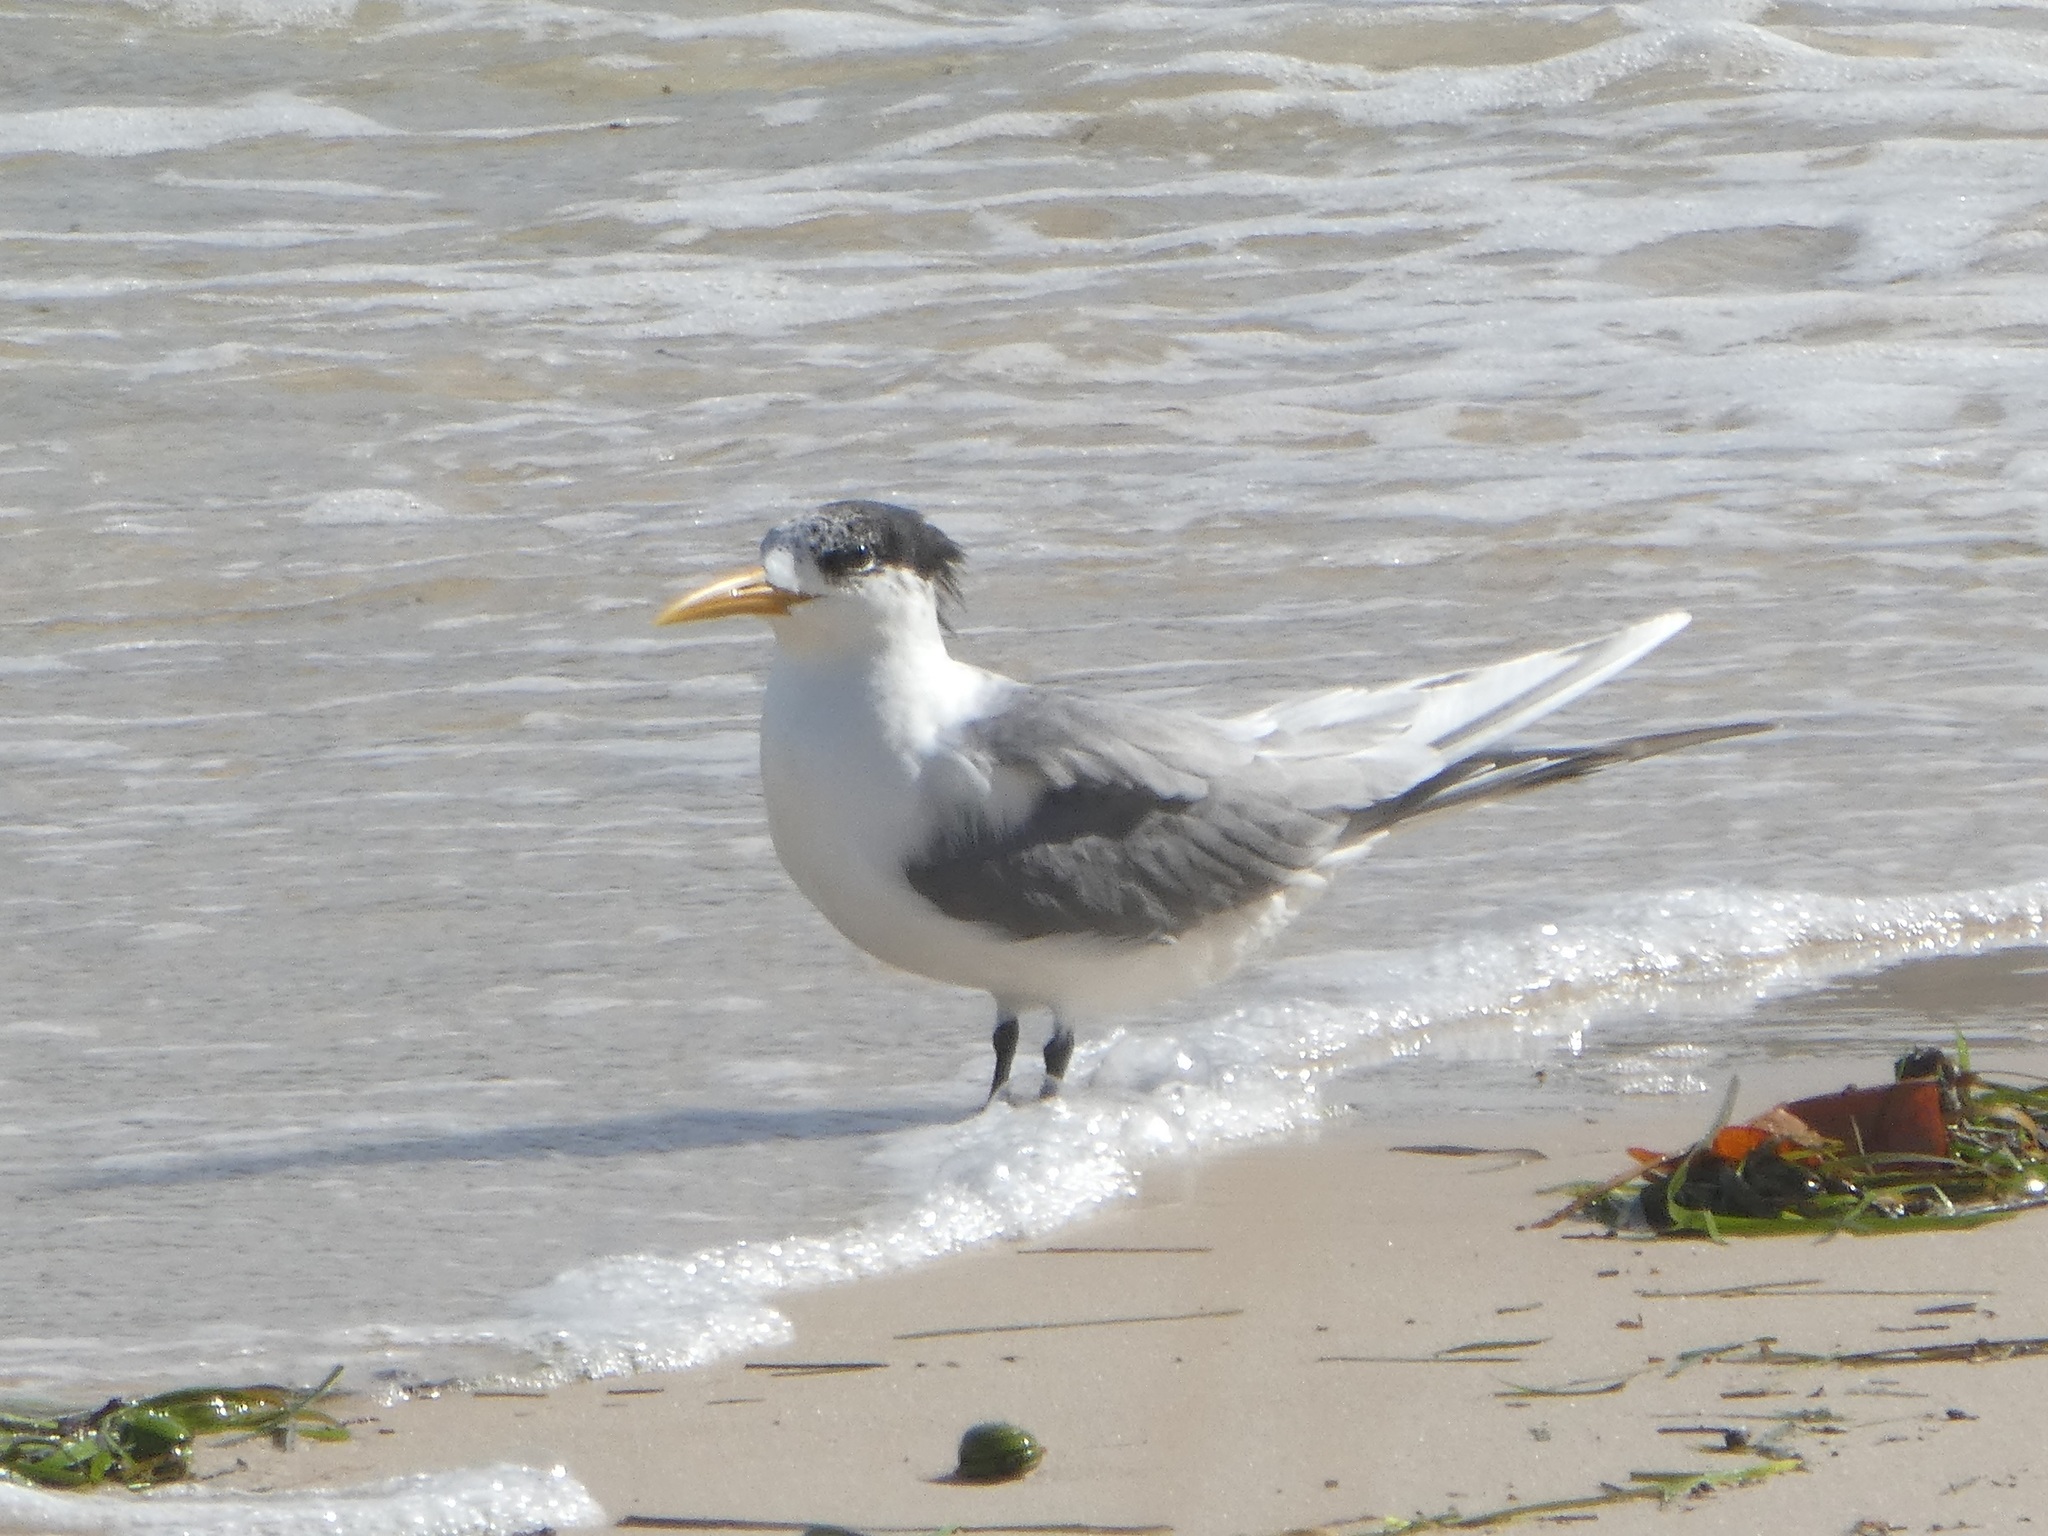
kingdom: Animalia
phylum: Chordata
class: Aves
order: Charadriiformes
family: Laridae
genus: Thalasseus
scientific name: Thalasseus bergii
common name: Greater crested tern
